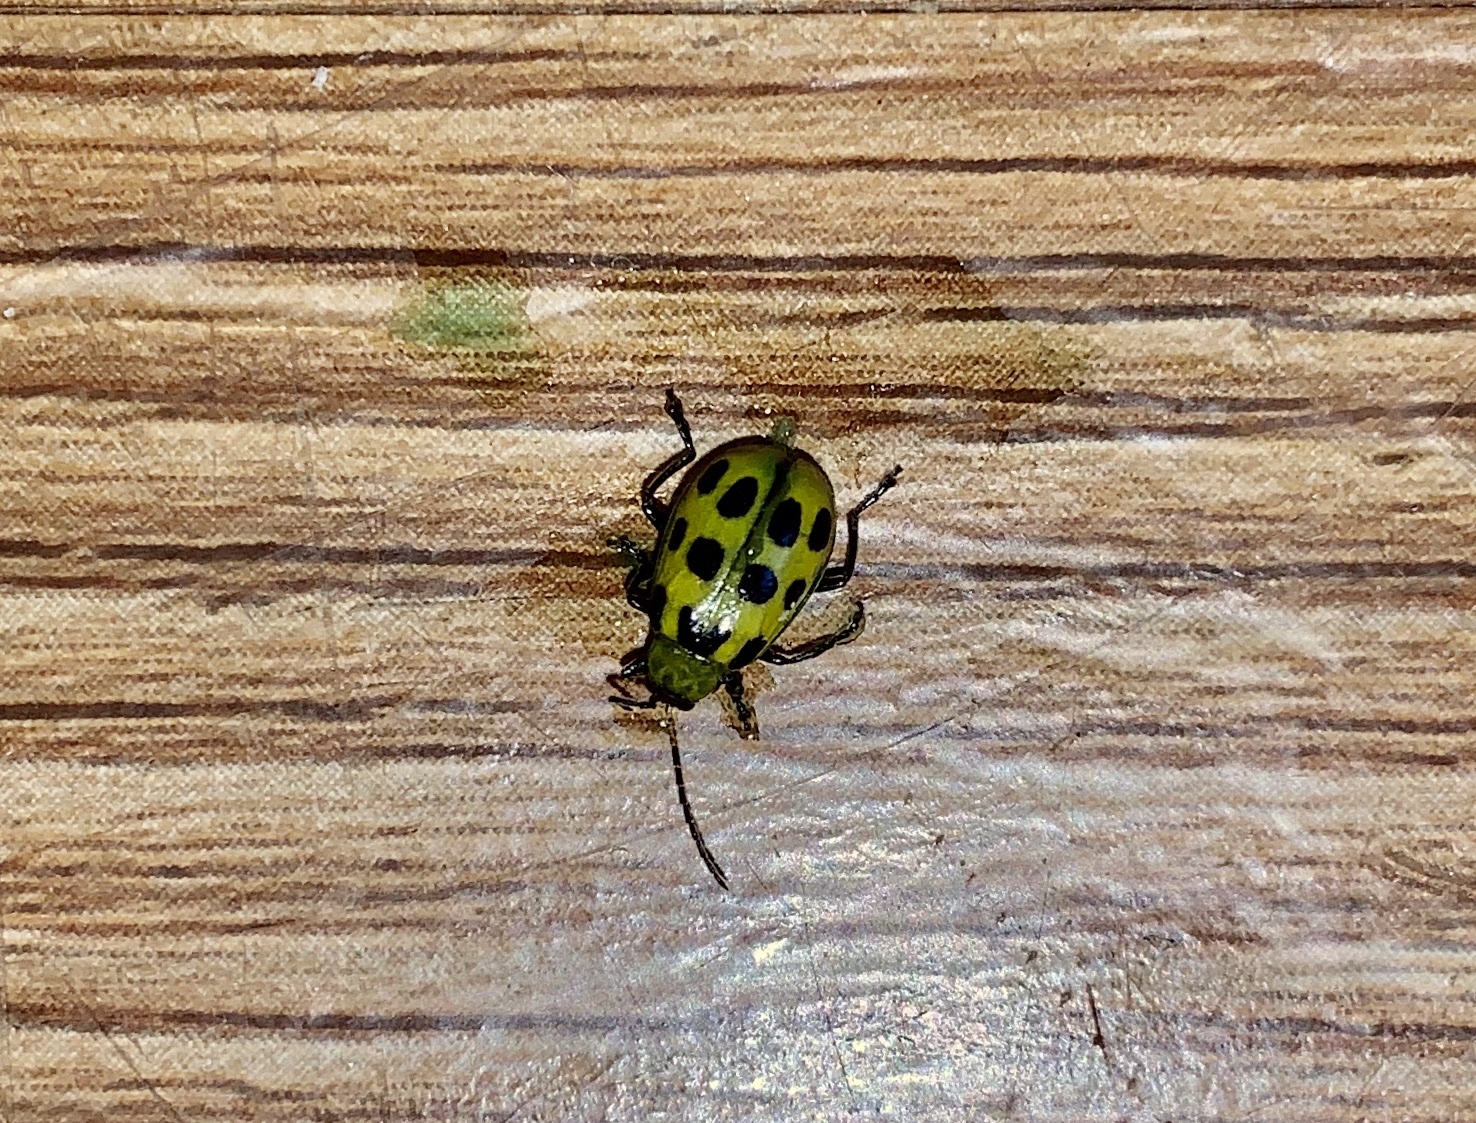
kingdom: Animalia
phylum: Arthropoda
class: Insecta
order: Coleoptera
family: Chrysomelidae
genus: Diabrotica
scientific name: Diabrotica undecimpunctata
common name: Spotted cucumber beetle
